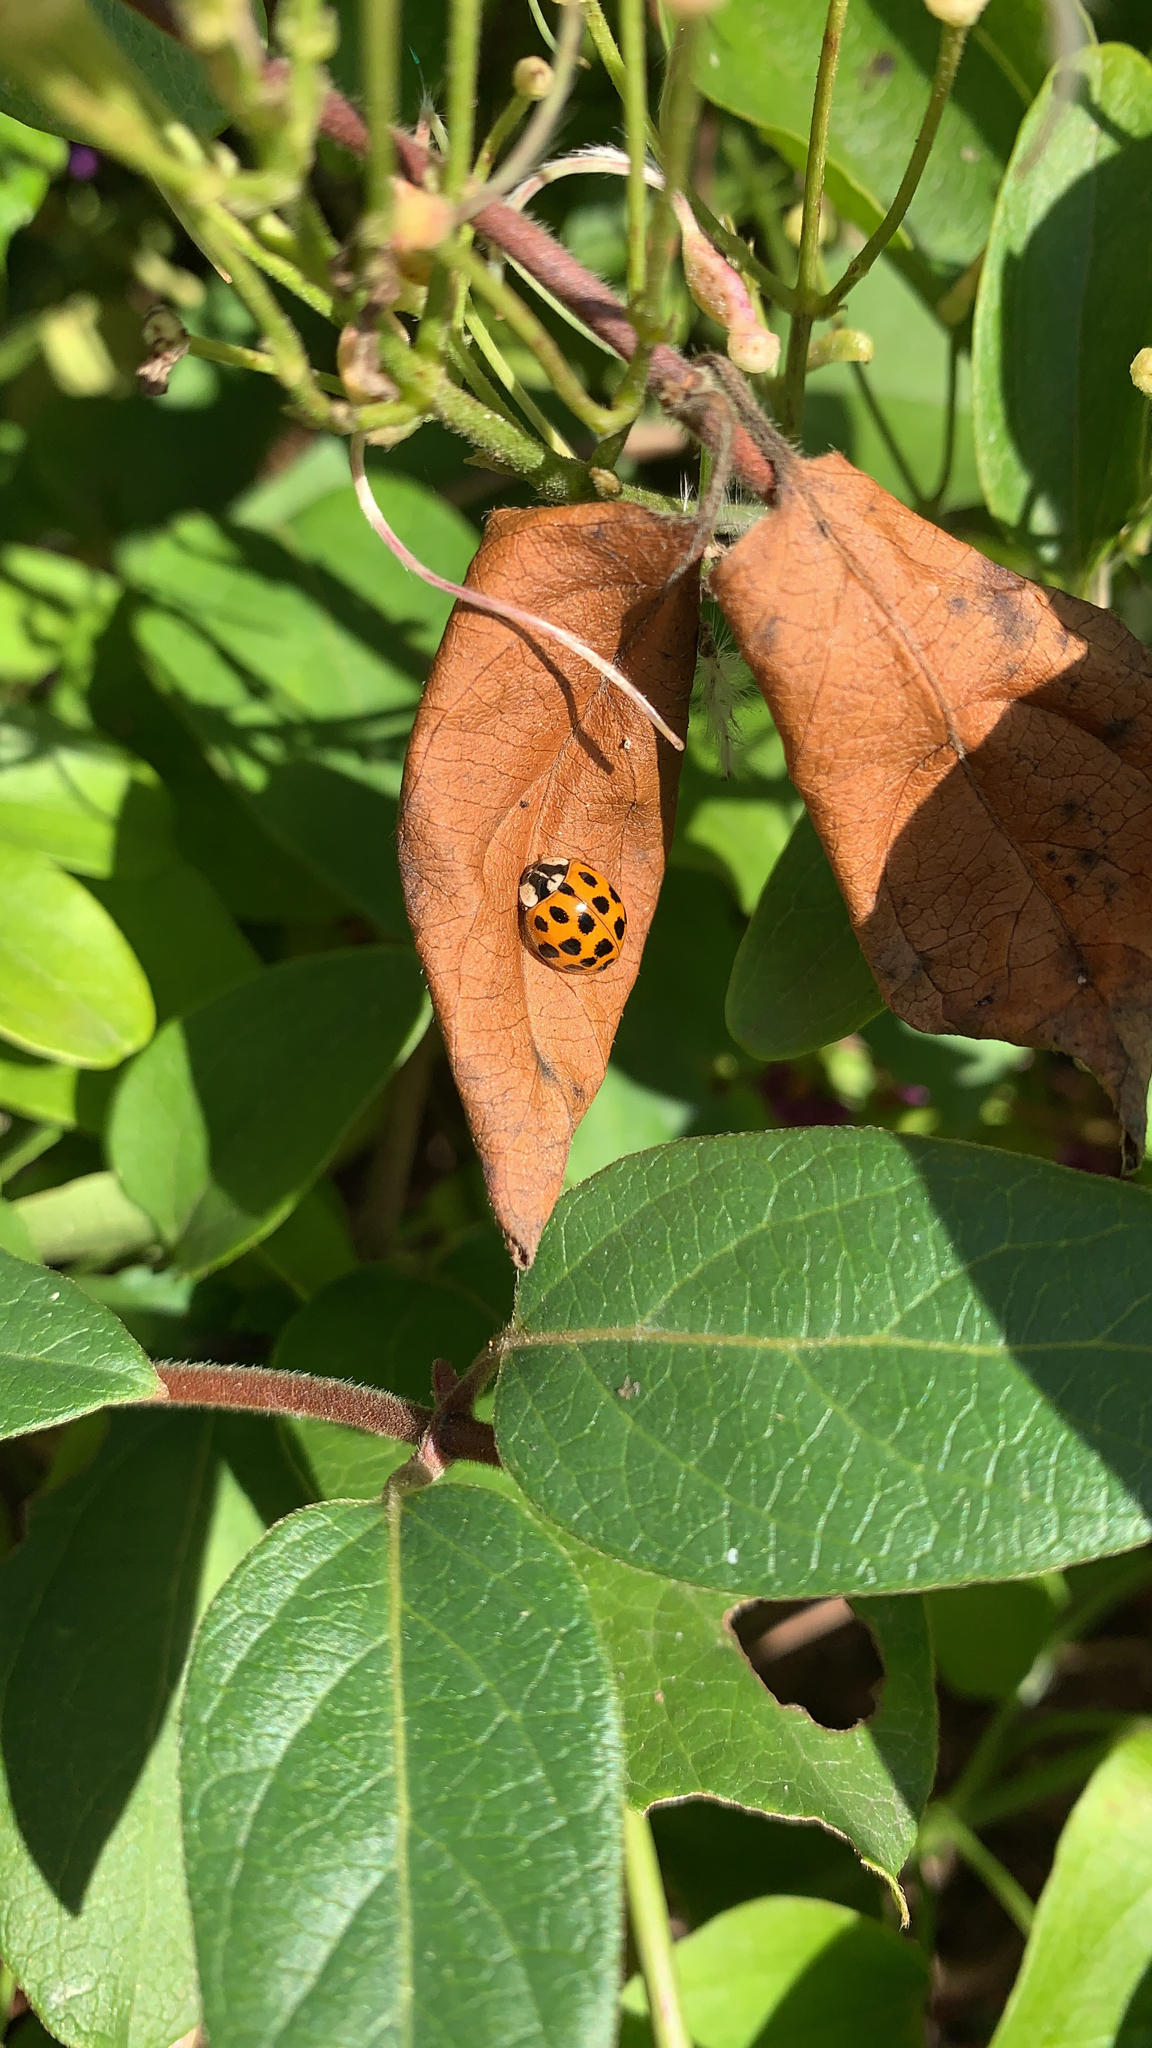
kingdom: Animalia
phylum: Arthropoda
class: Insecta
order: Coleoptera
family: Coccinellidae
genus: Harmonia
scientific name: Harmonia axyridis
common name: Harlequin ladybird
